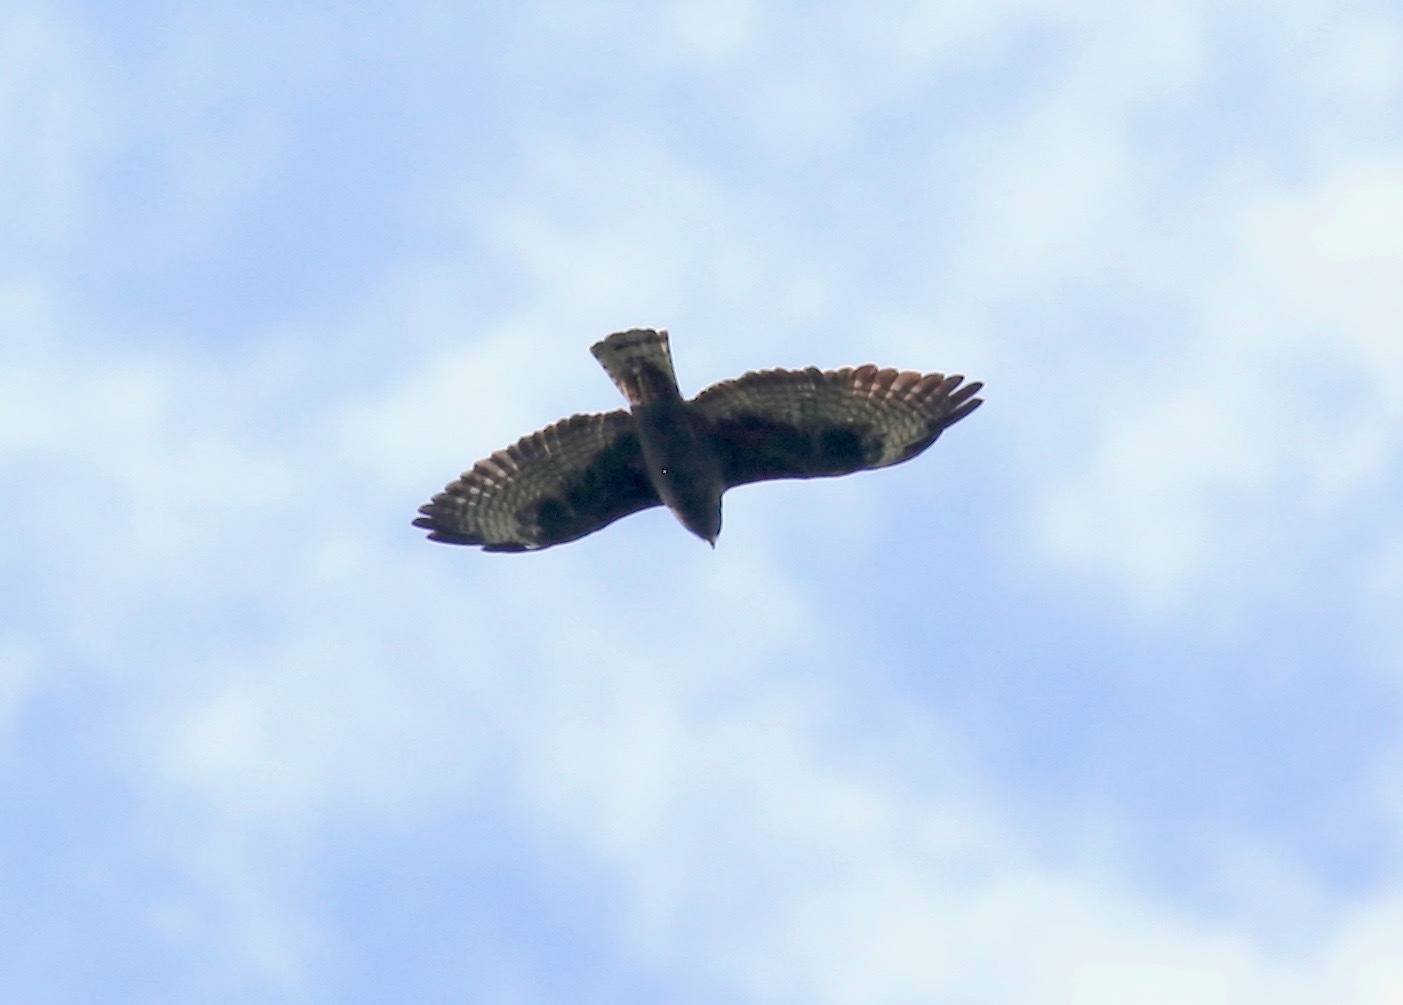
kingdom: Animalia
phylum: Chordata
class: Aves
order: Accipitriformes
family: Accipitridae
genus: Buteo
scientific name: Buteo brachyurus
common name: Short-tailed hawk
